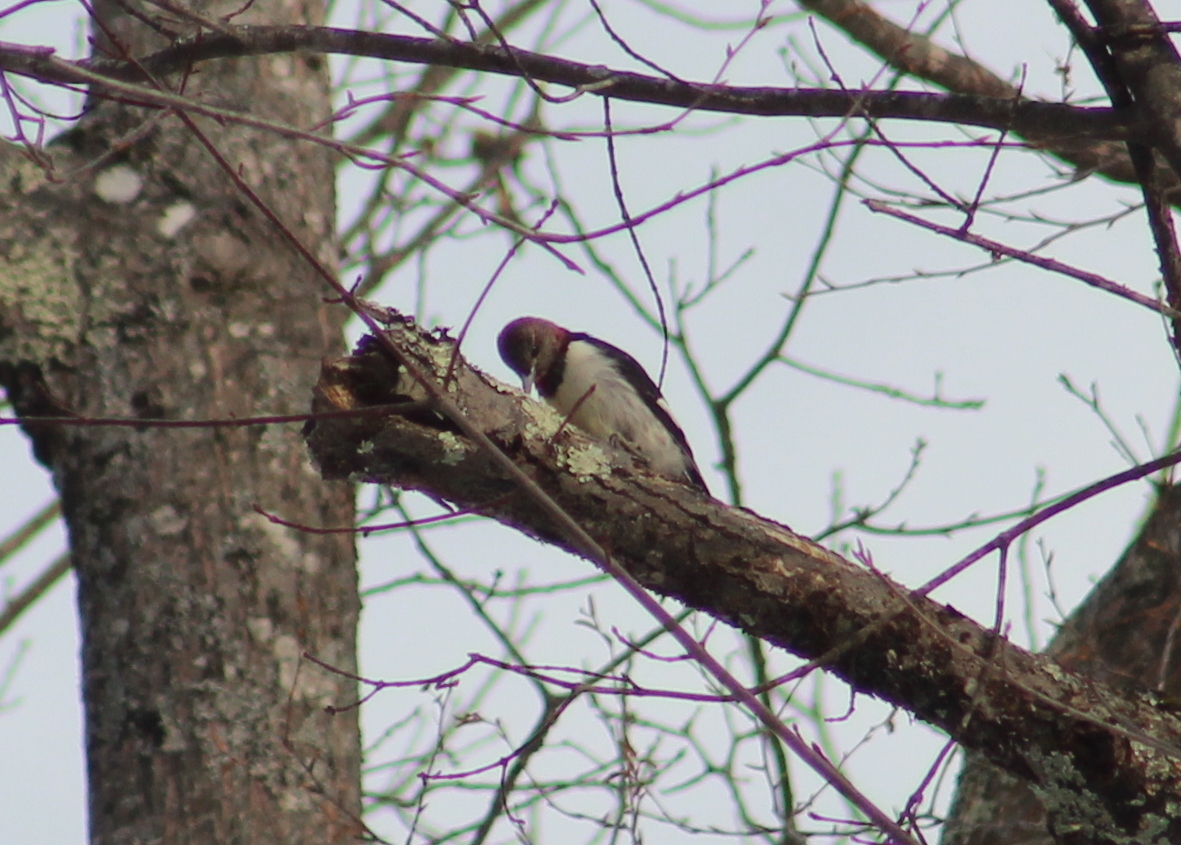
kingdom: Animalia
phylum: Chordata
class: Aves
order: Piciformes
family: Picidae
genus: Melanerpes
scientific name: Melanerpes erythrocephalus
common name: Red-headed woodpecker
